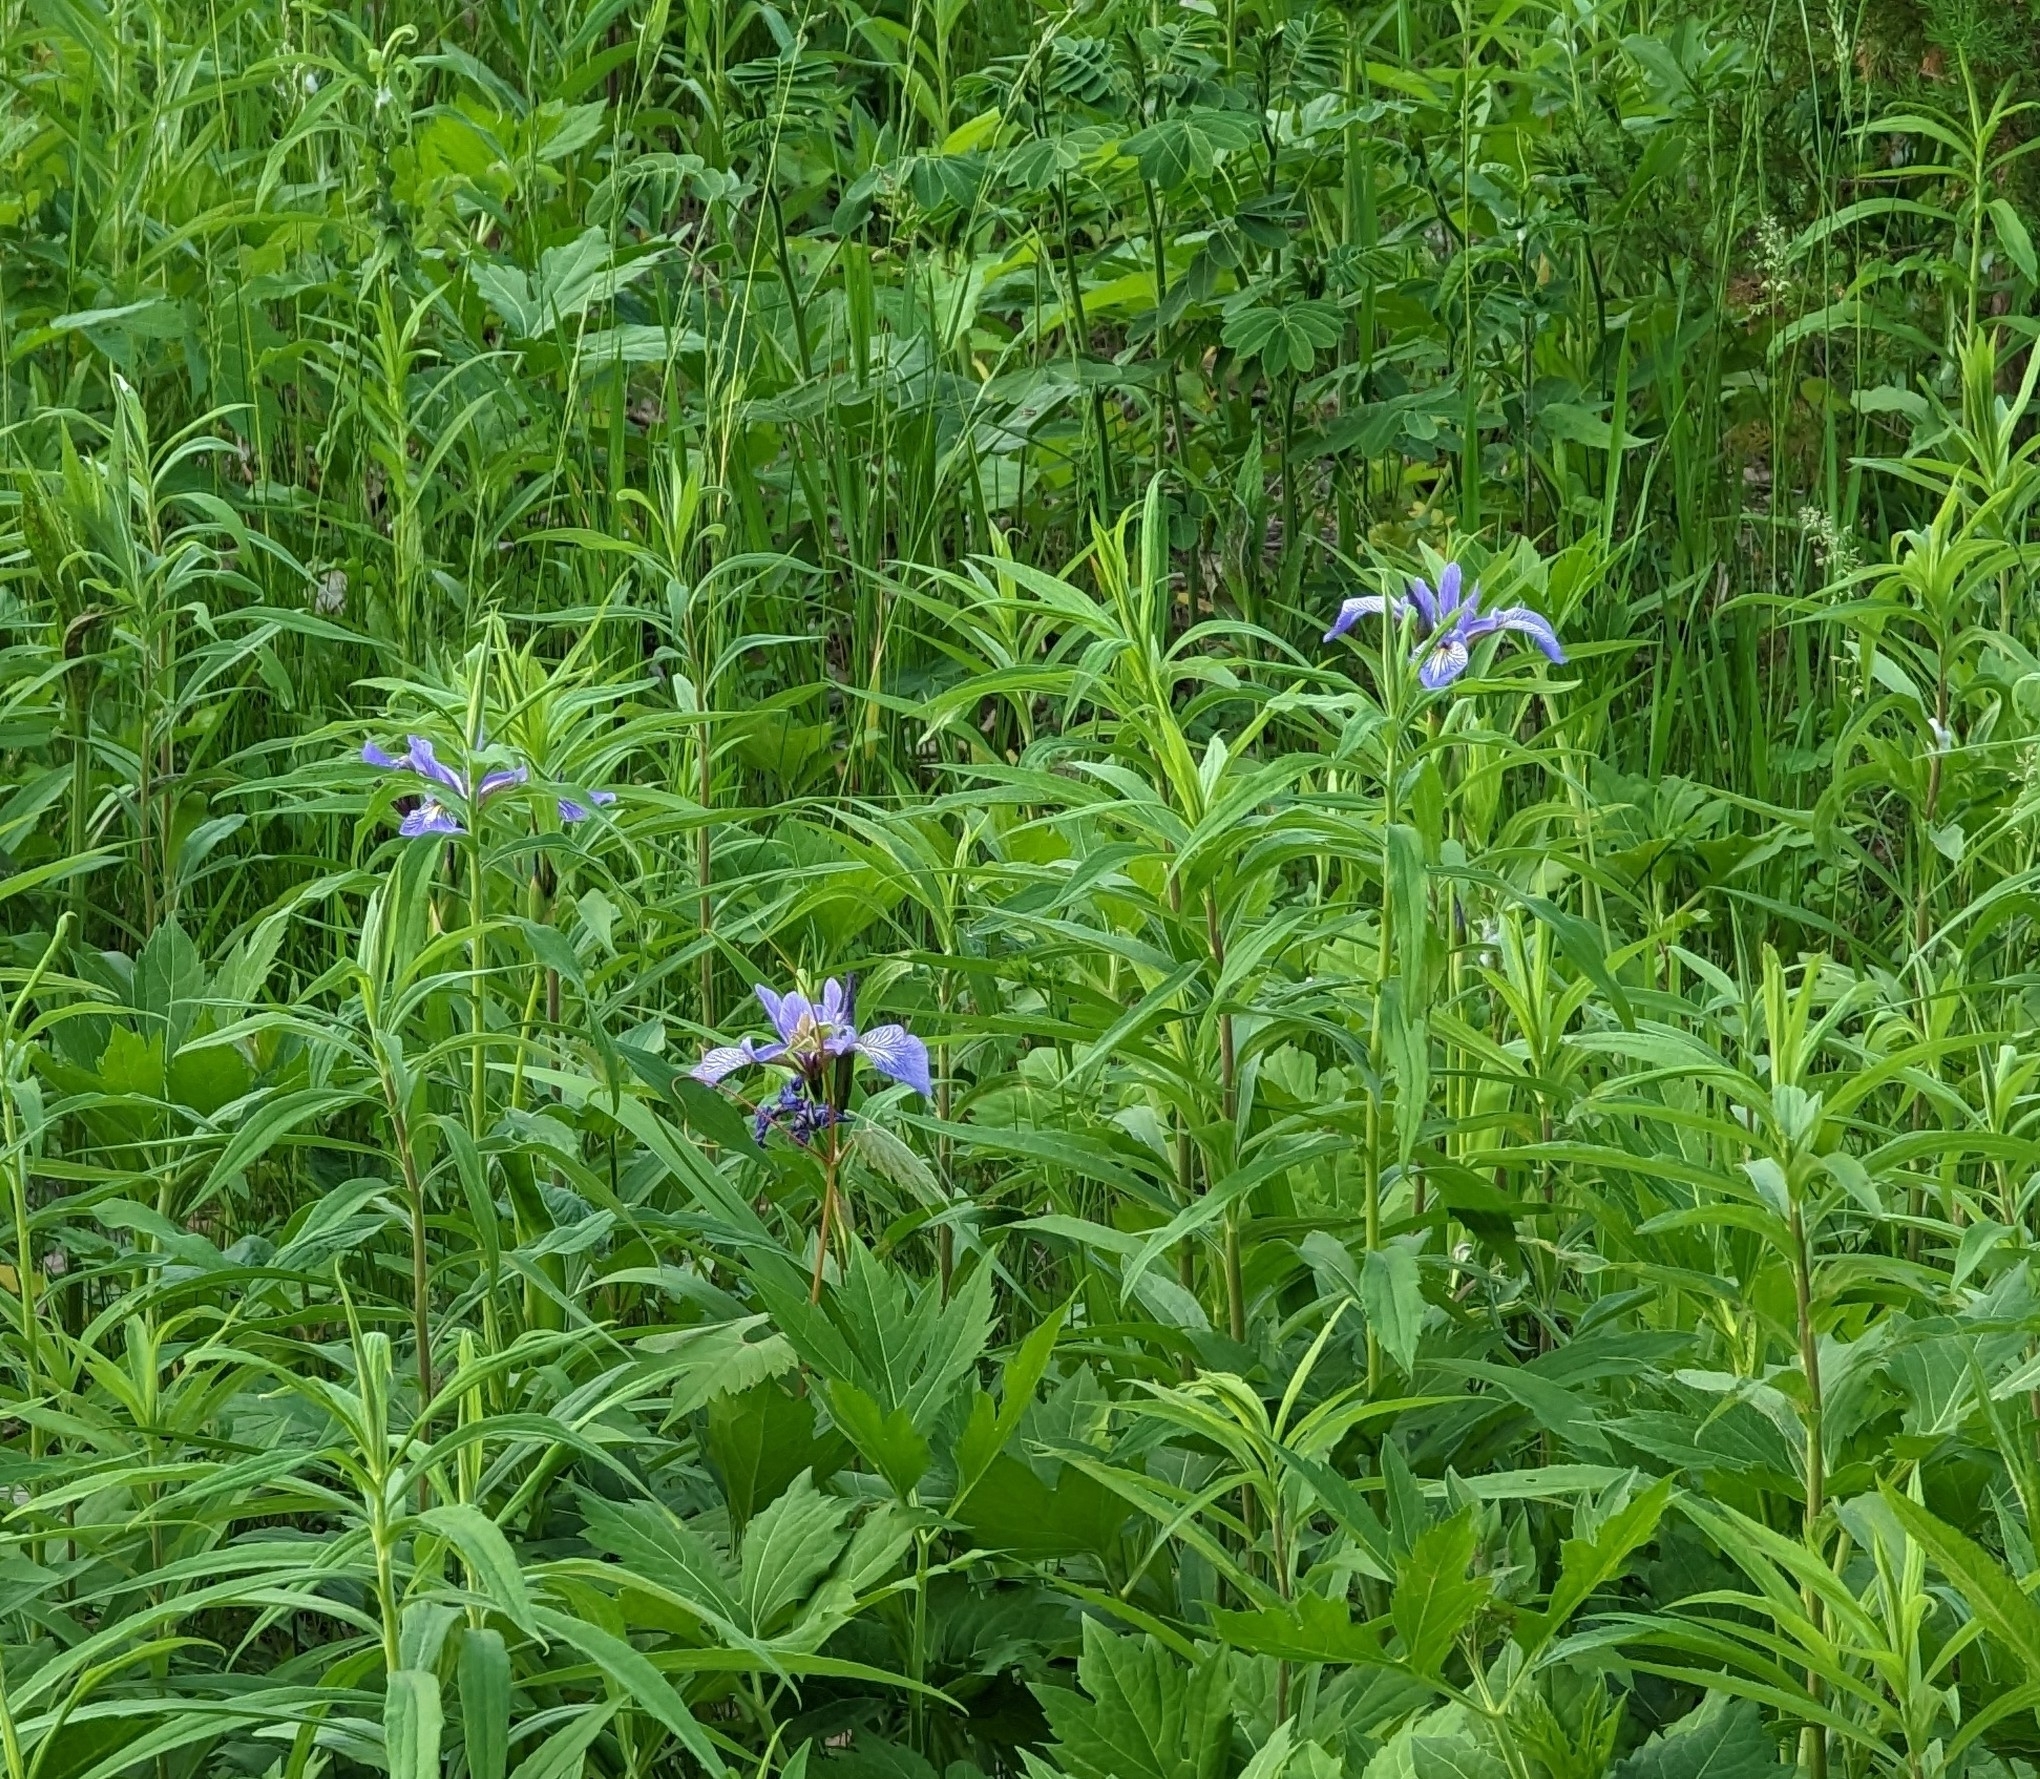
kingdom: Plantae
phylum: Tracheophyta
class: Liliopsida
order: Asparagales
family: Iridaceae
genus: Iris
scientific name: Iris versicolor
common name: Purple iris
